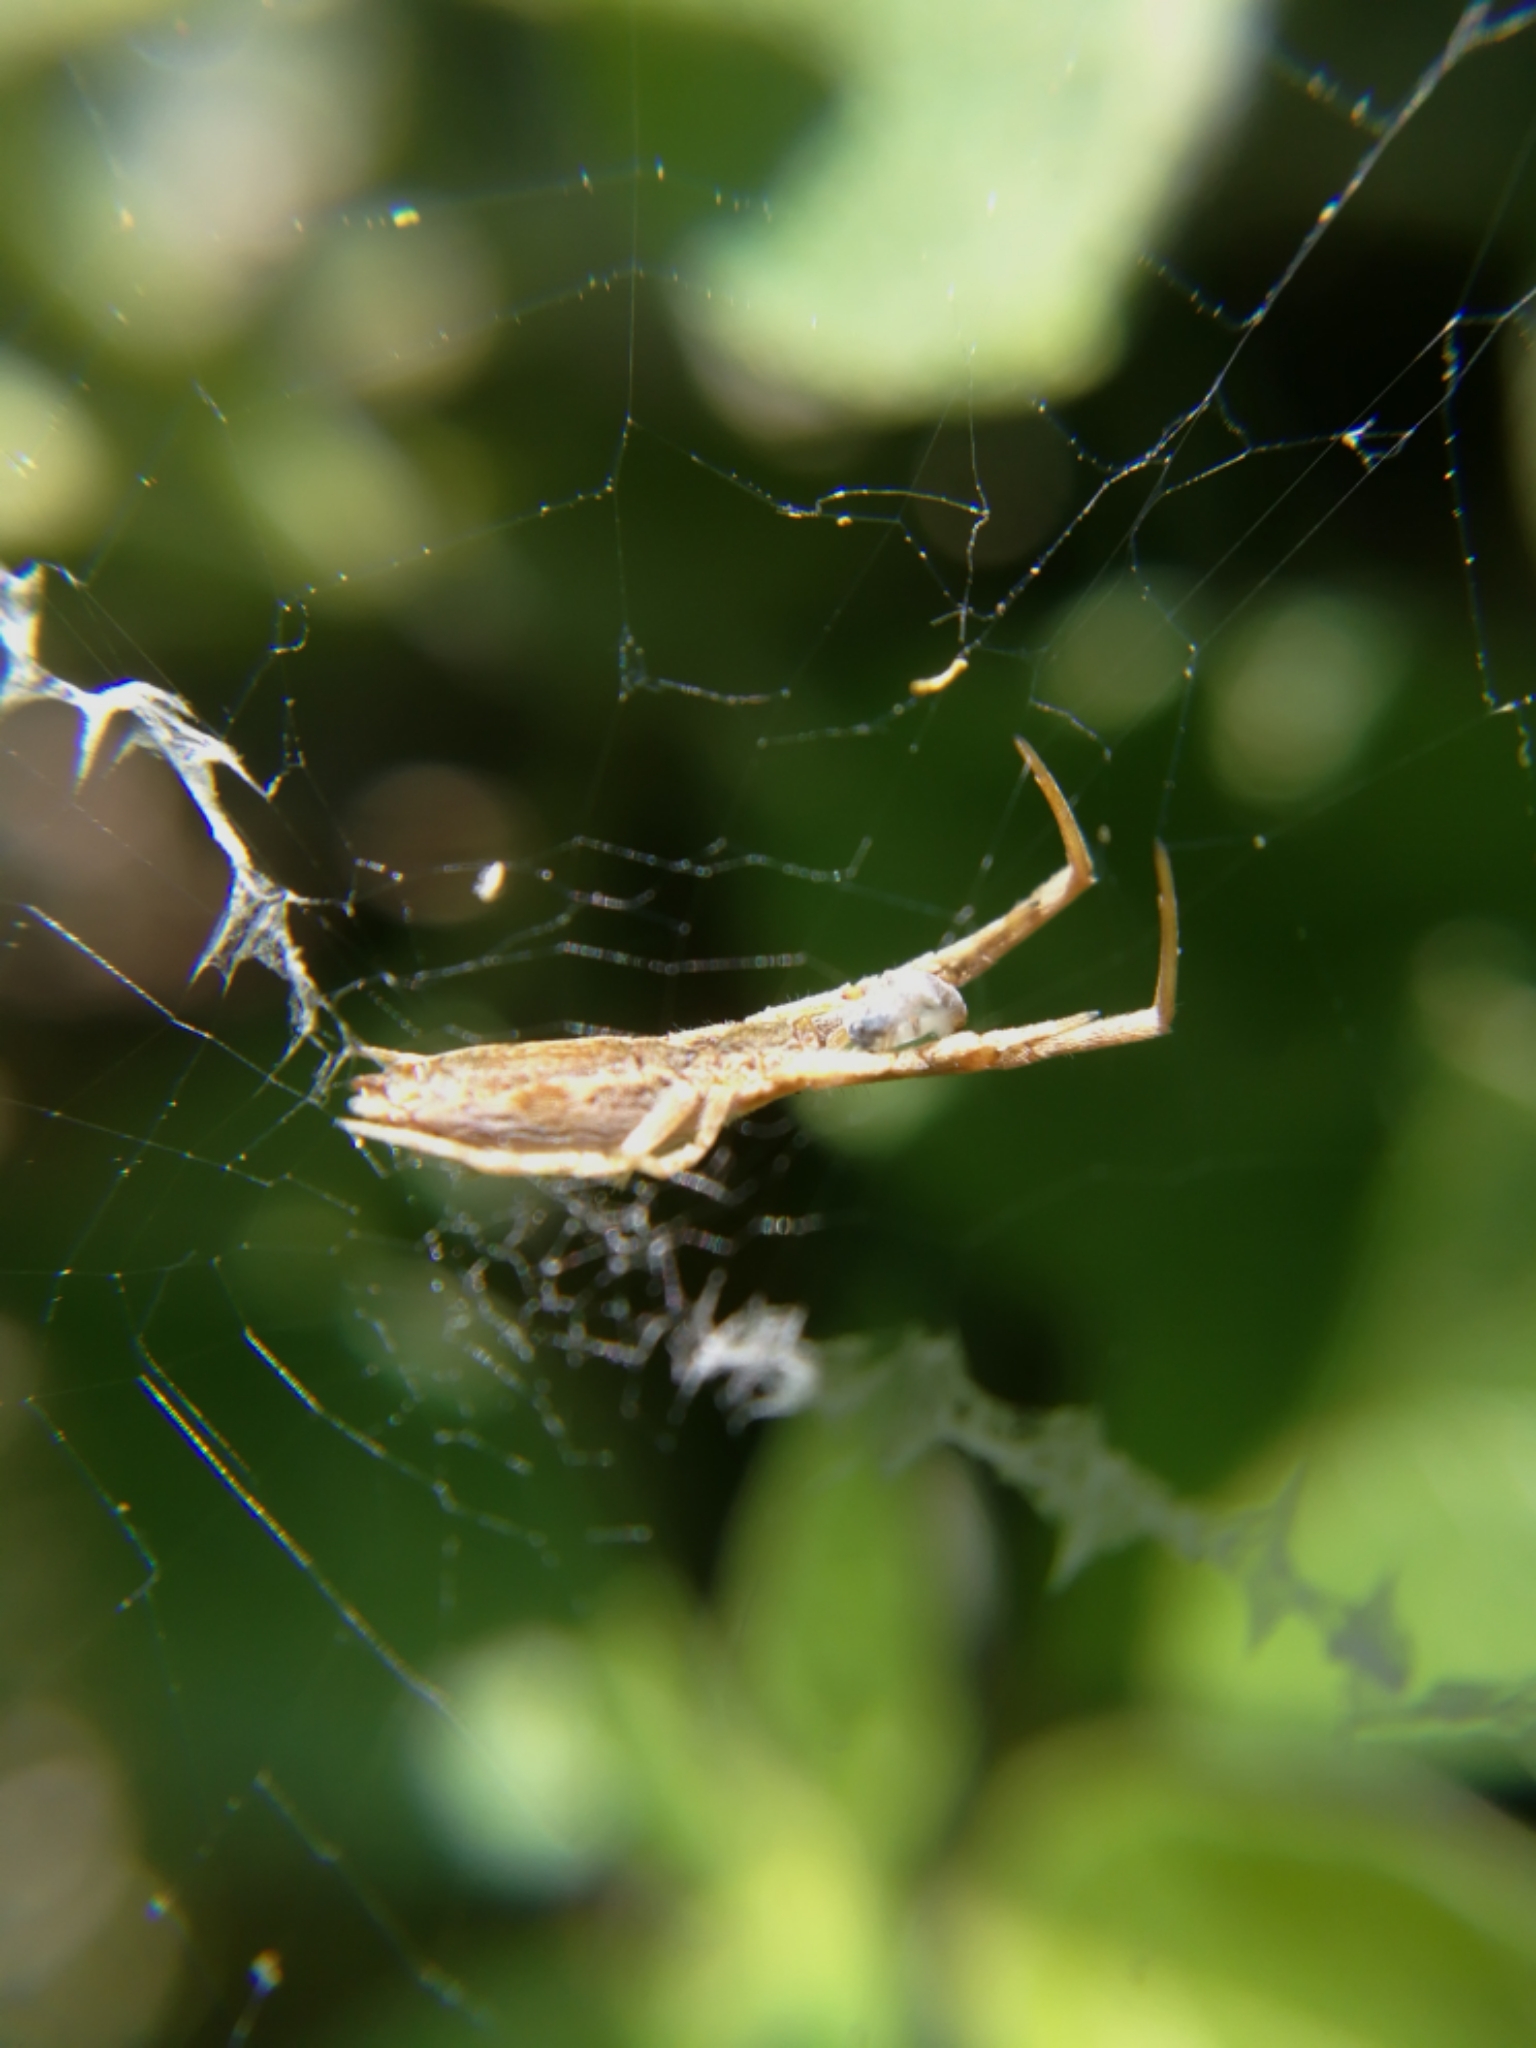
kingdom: Animalia
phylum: Arthropoda
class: Arachnida
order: Araneae
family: Uloboridae
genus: Uloborus
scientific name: Uloborus walckenaerius
